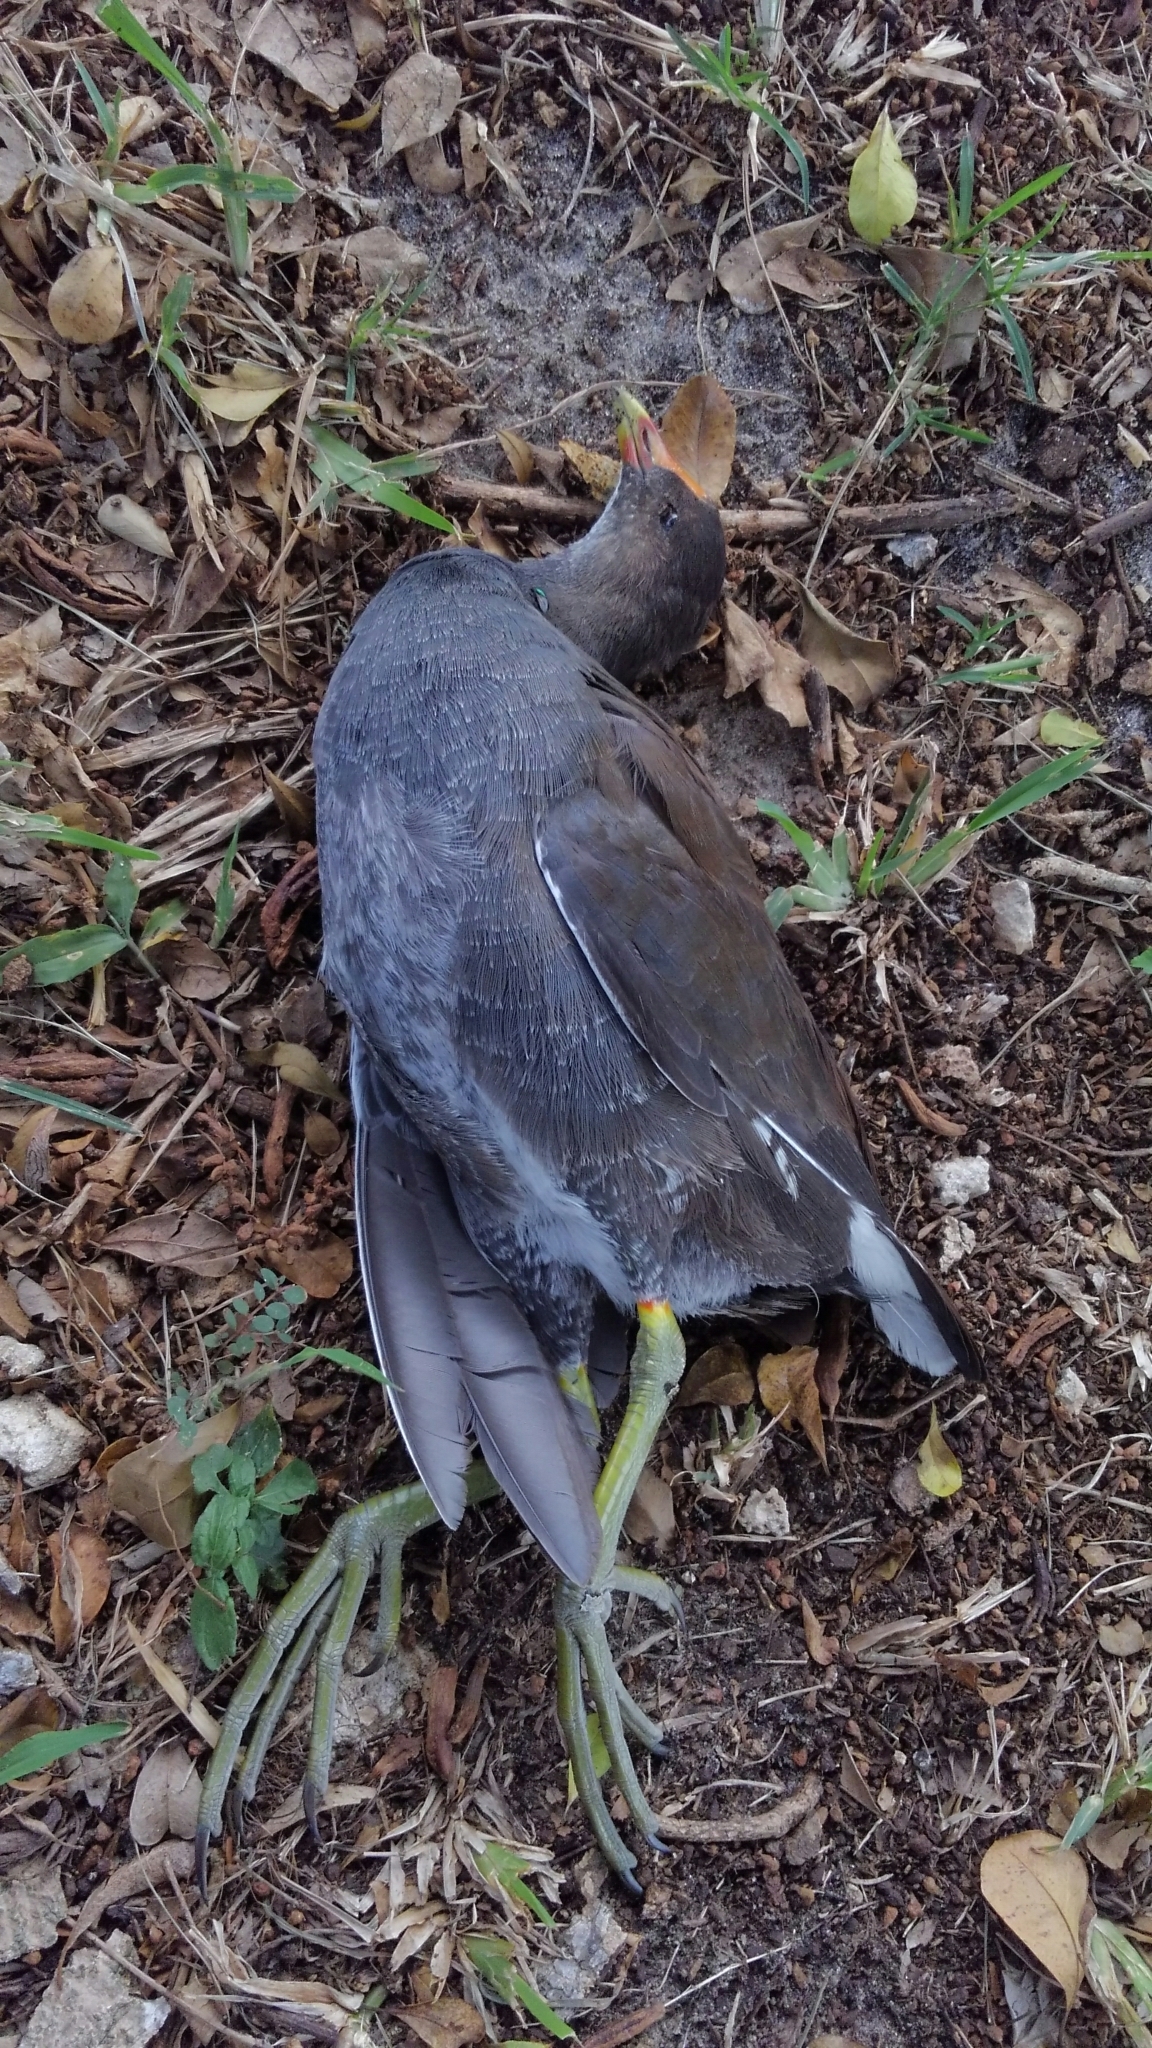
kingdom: Animalia
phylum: Chordata
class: Aves
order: Gruiformes
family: Rallidae
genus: Gallinula
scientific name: Gallinula chloropus
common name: Common moorhen
